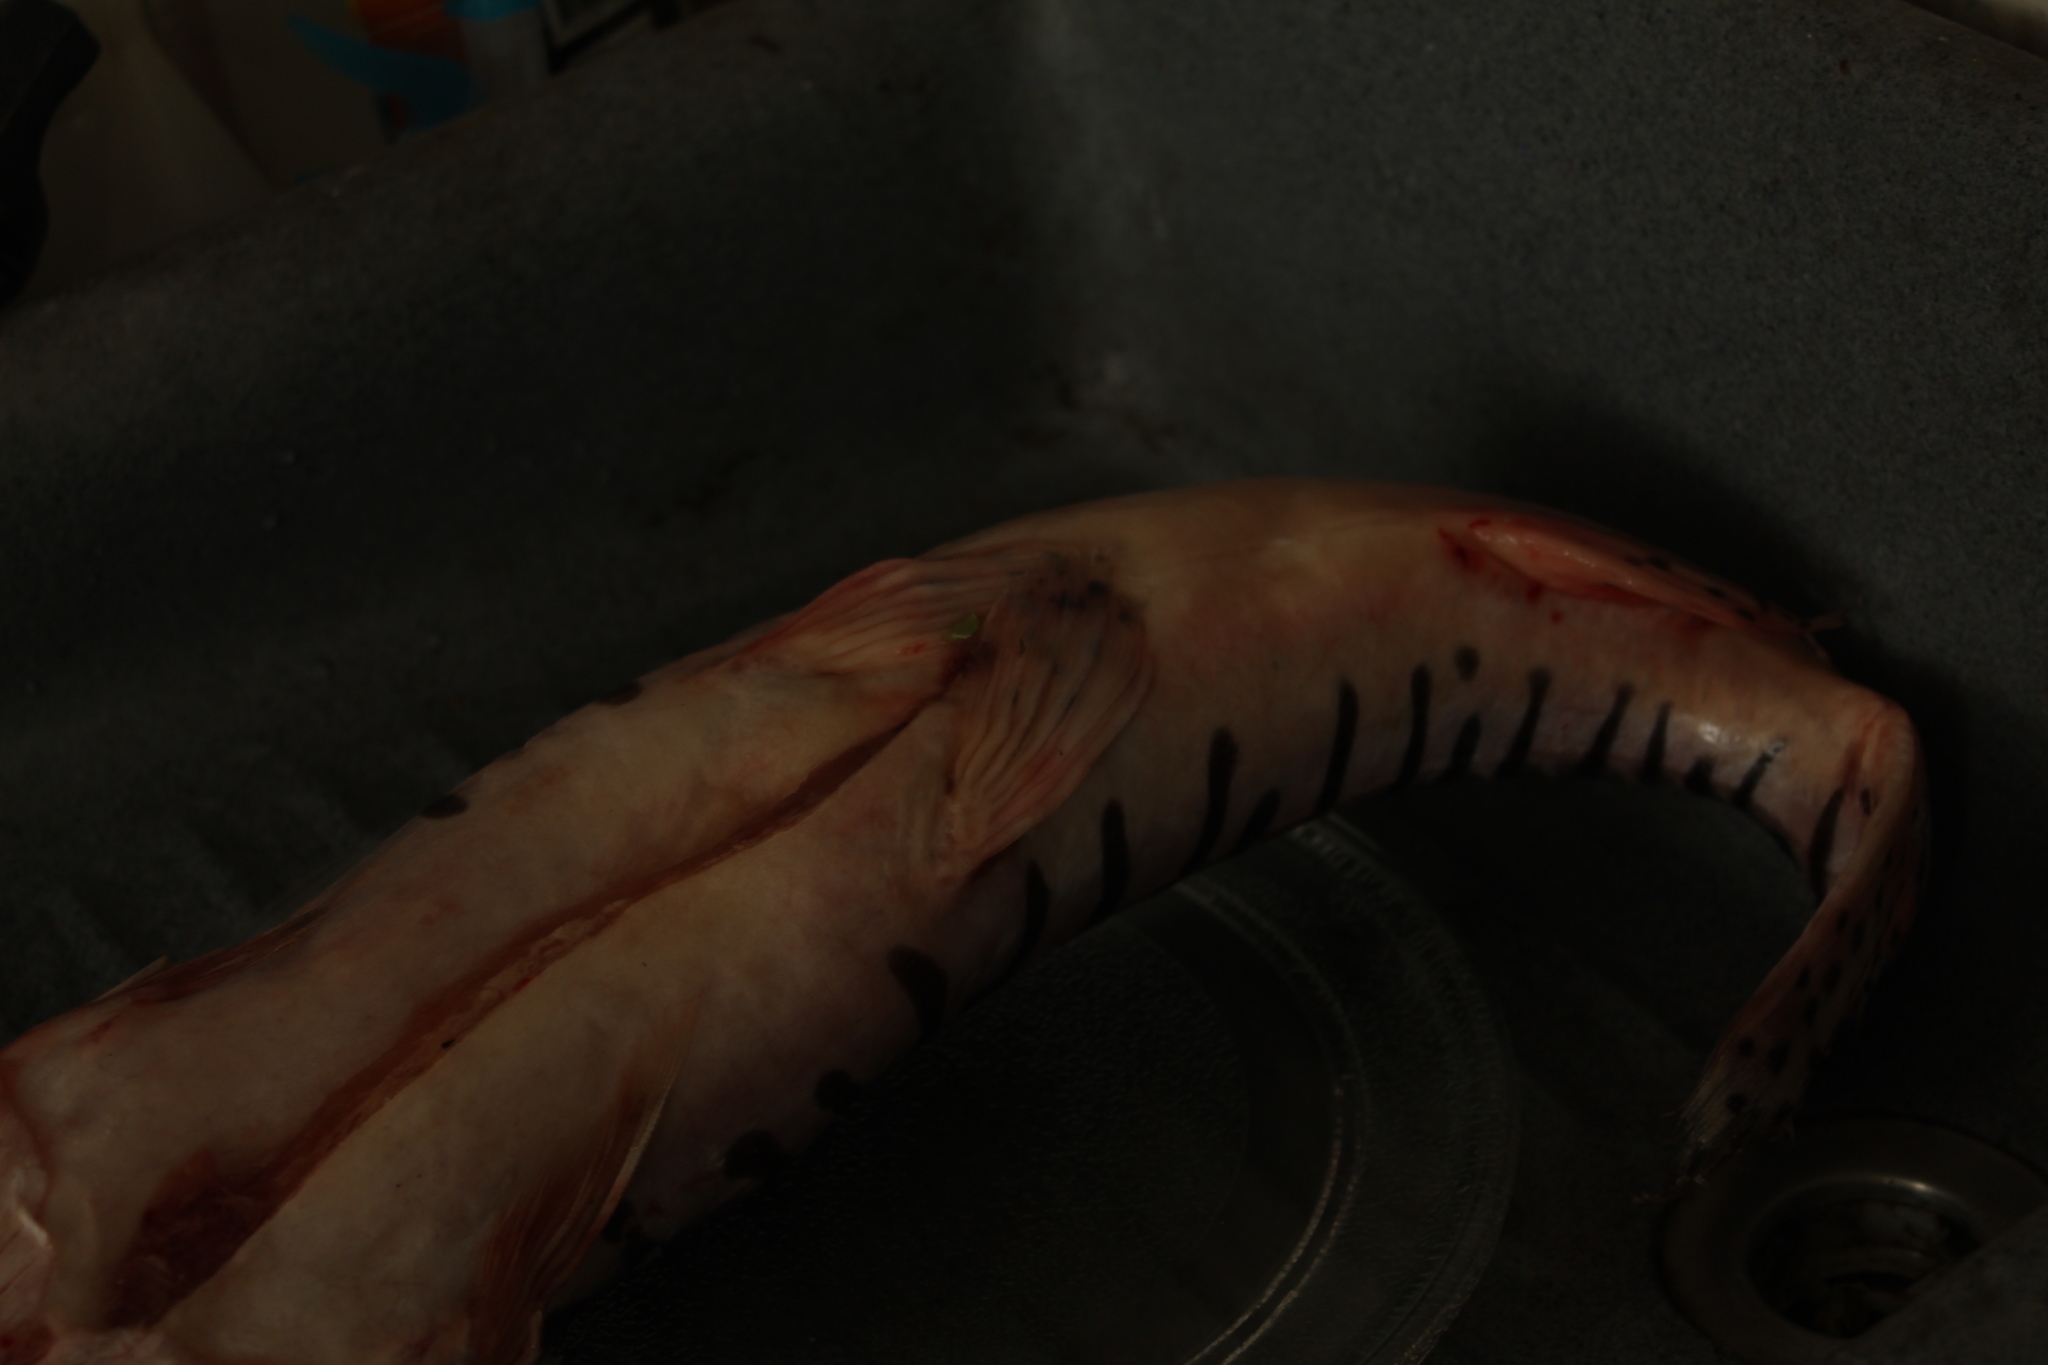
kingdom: Animalia
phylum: Chordata
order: Siluriformes
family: Pimelodidae
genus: Pseudoplatystoma
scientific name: Pseudoplatystoma orinocoense
